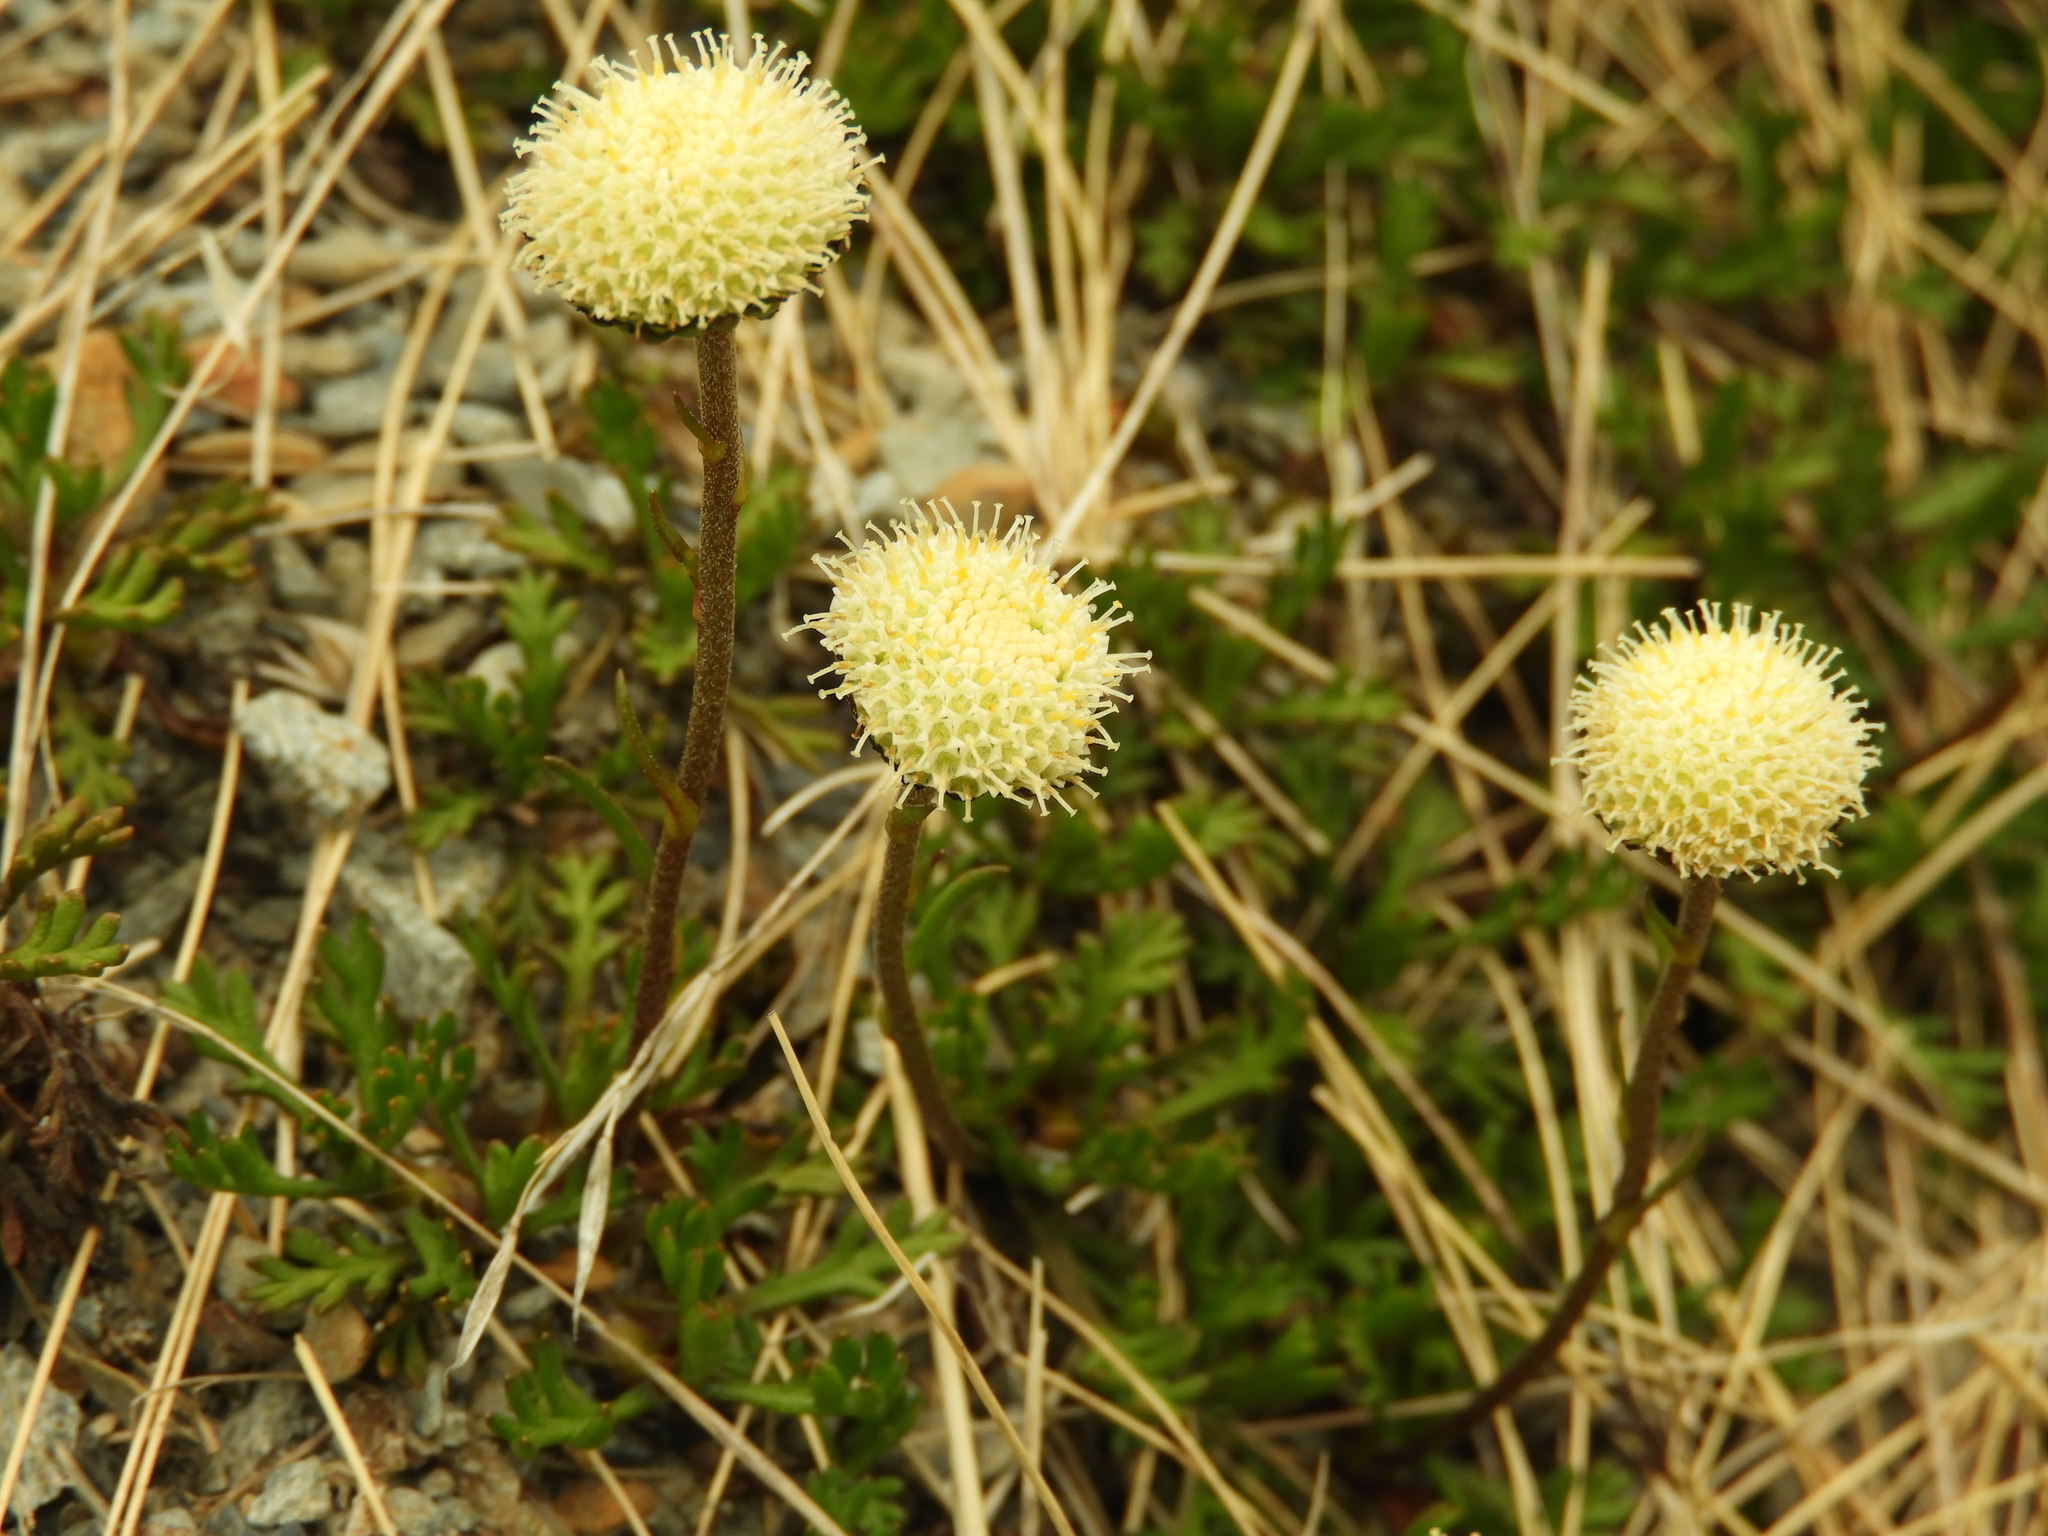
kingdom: Plantae
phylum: Tracheophyta
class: Magnoliopsida
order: Asterales
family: Asteraceae
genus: Leptinella
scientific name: Leptinella pyrethrifolia
